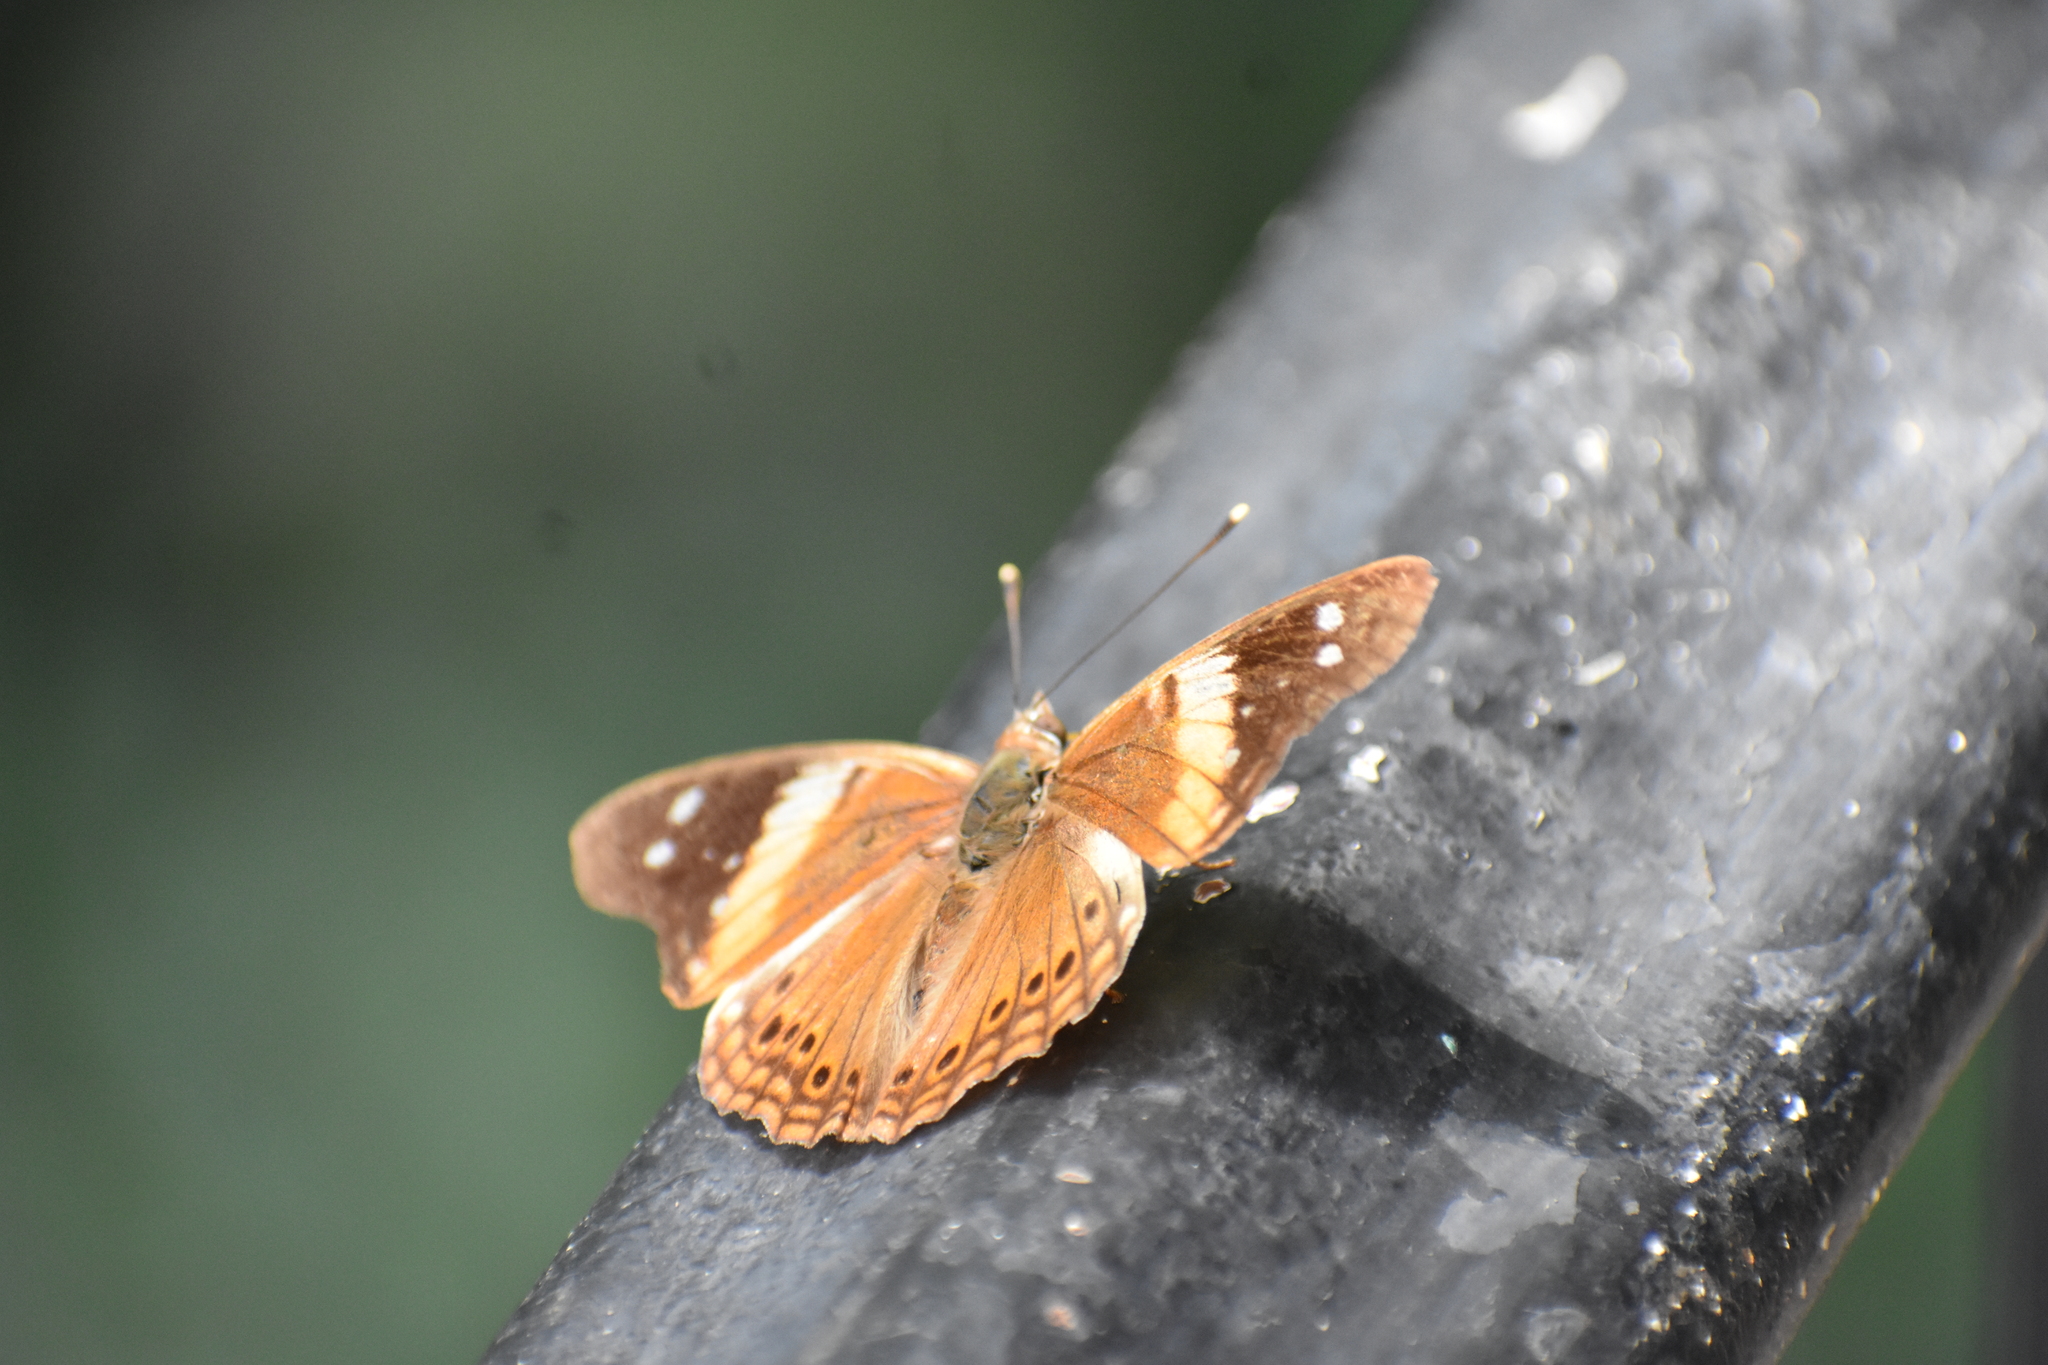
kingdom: Animalia
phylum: Arthropoda
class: Insecta
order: Lepidoptera
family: Nymphalidae
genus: Asterocampa
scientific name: Asterocampa idyja
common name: Dusky emperor
